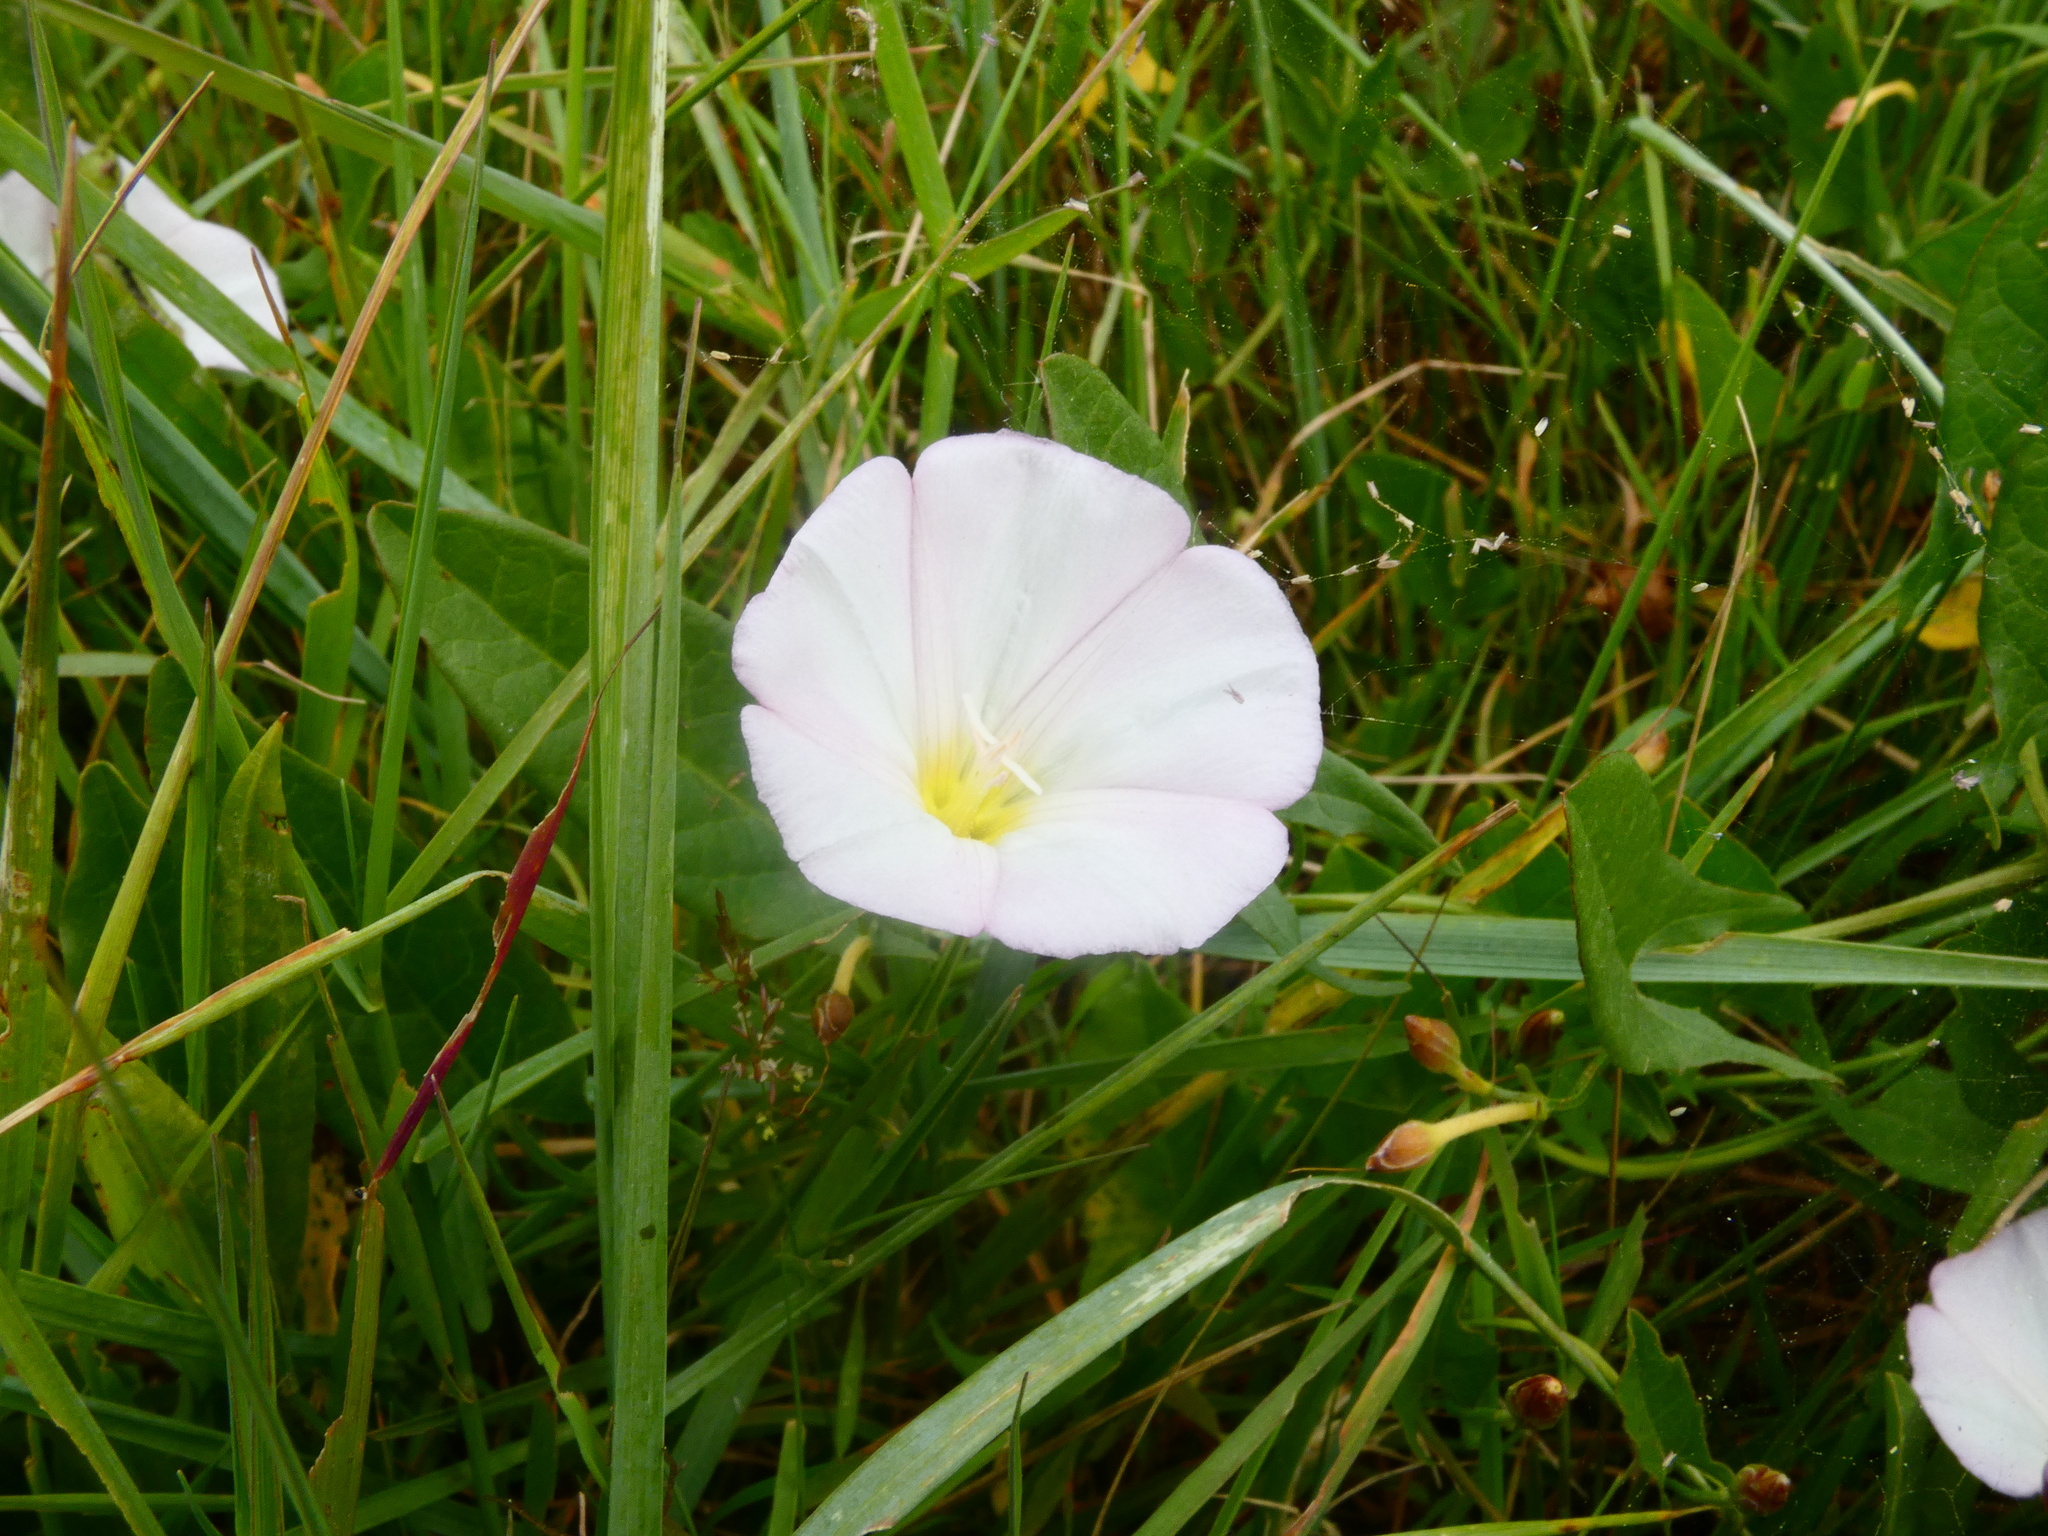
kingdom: Plantae
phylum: Tracheophyta
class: Magnoliopsida
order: Solanales
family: Convolvulaceae
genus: Convolvulus
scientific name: Convolvulus arvensis
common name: Field bindweed
